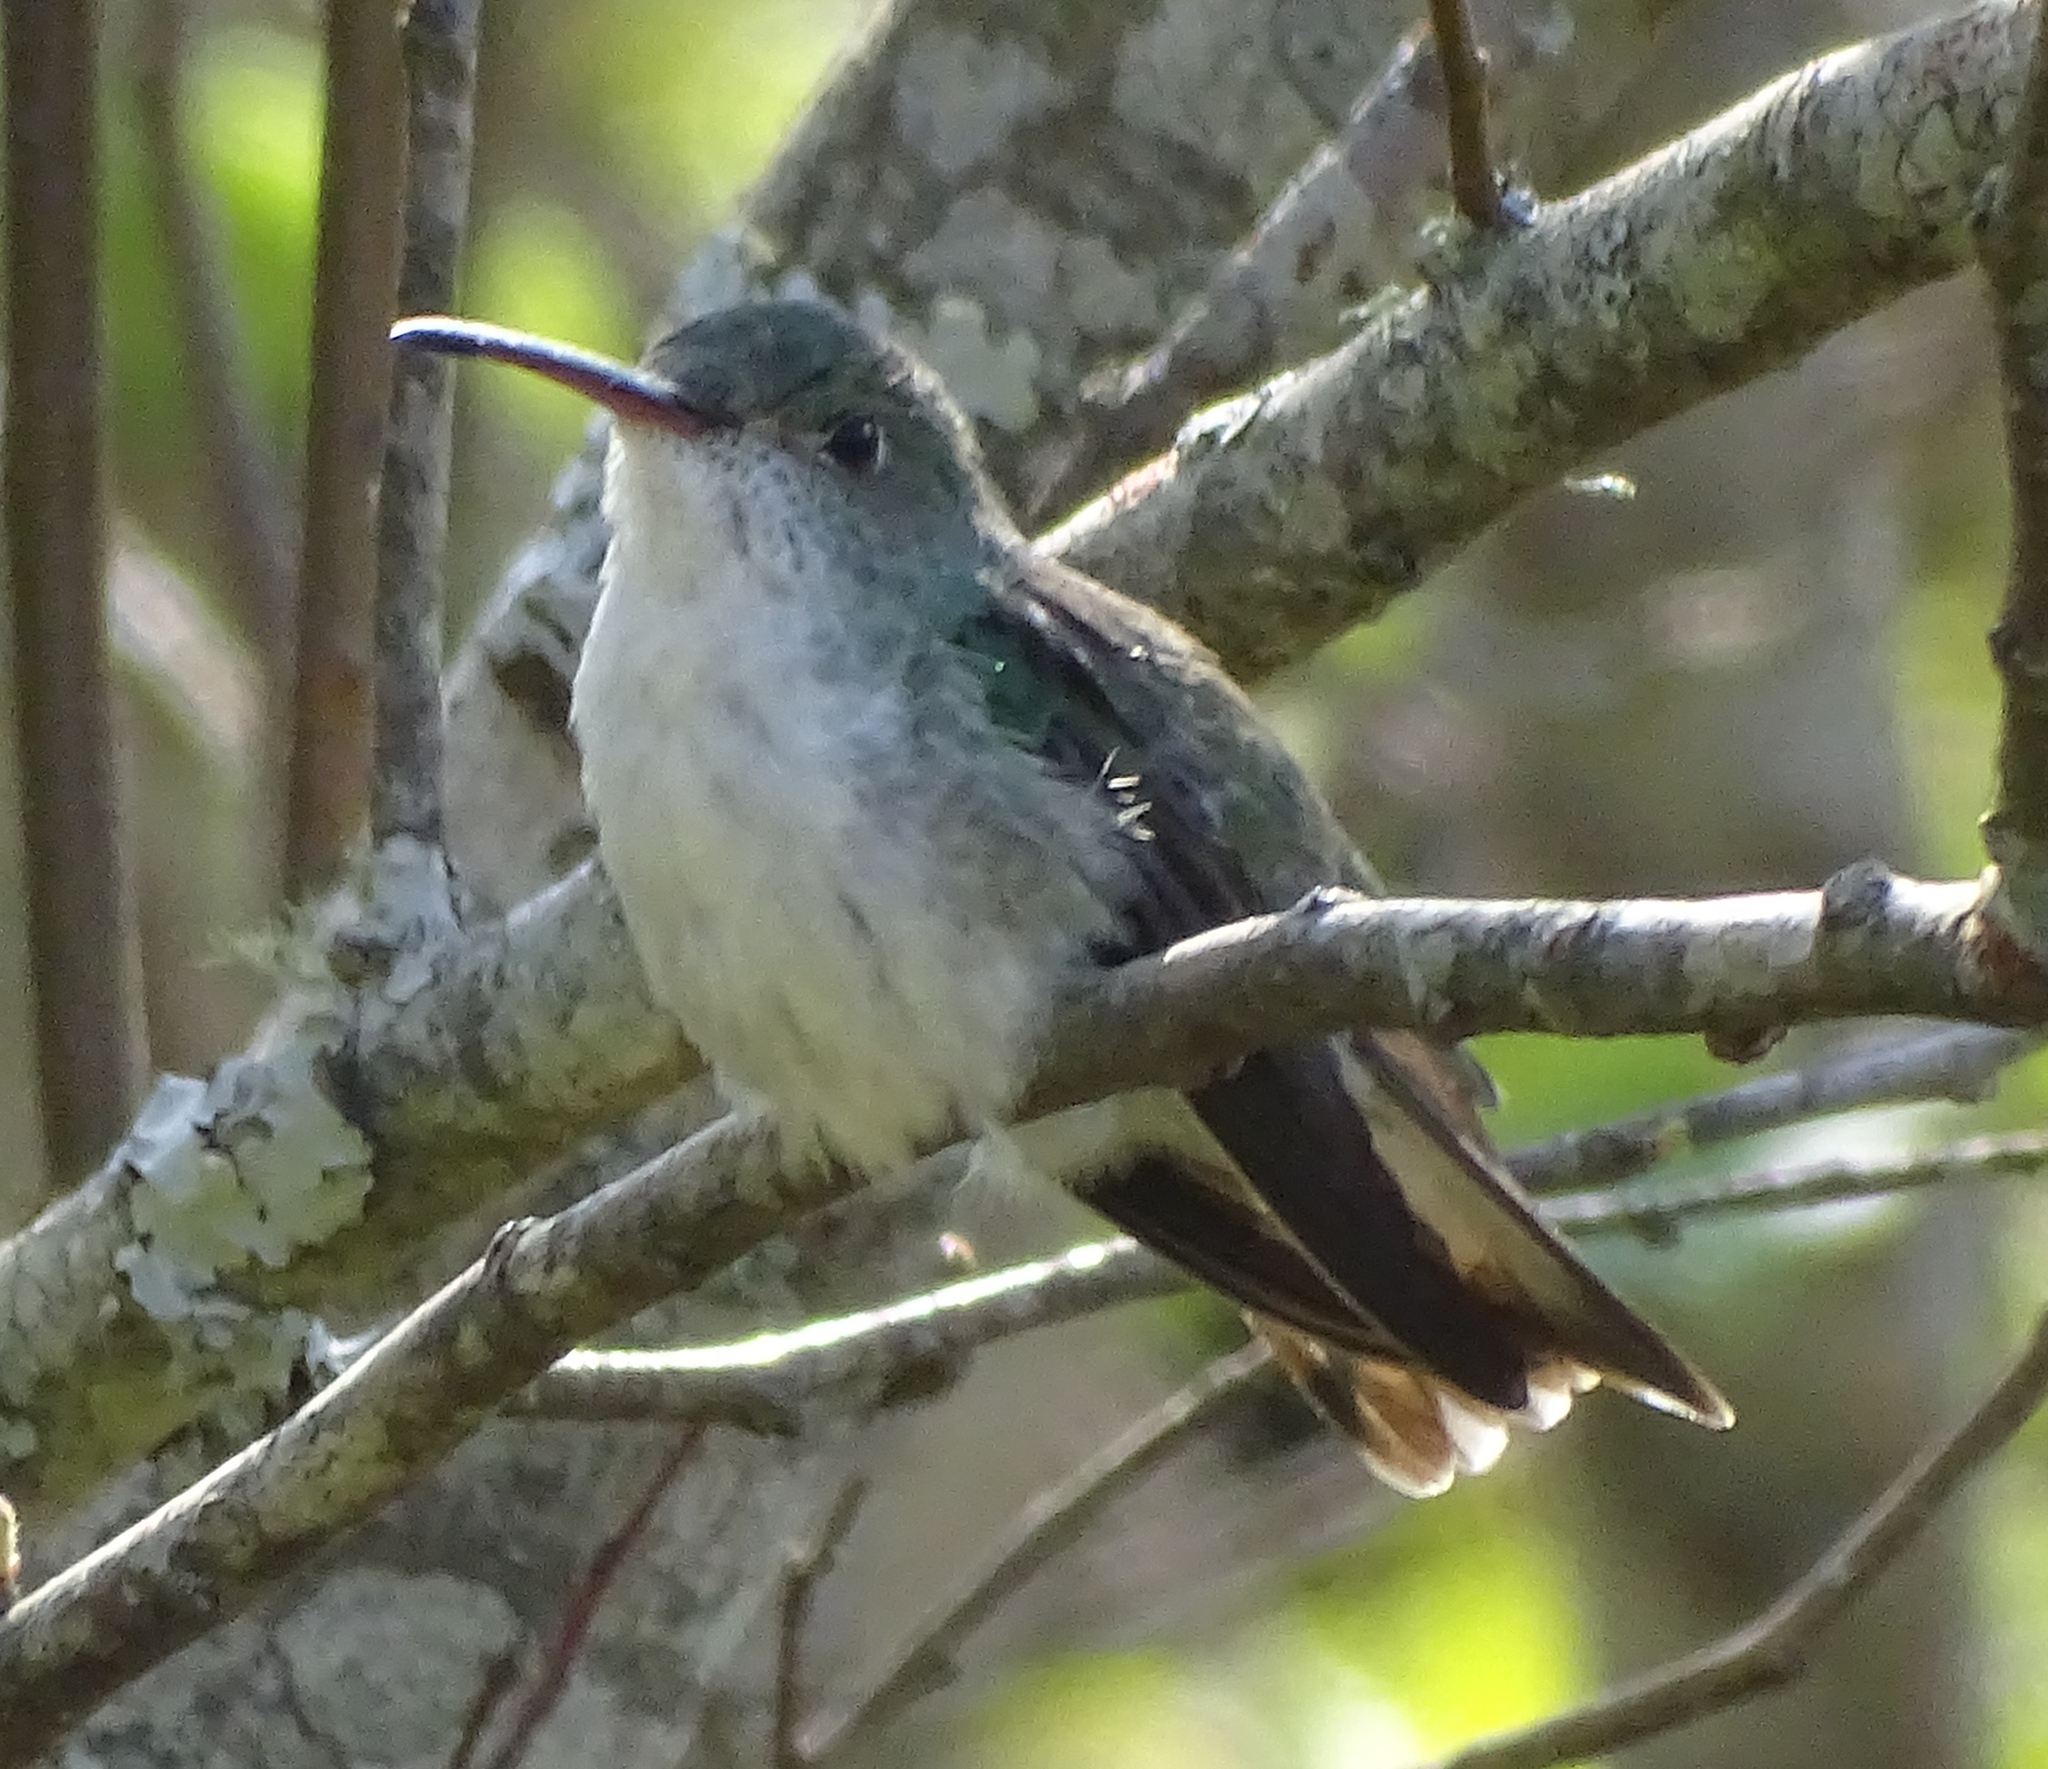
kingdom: Animalia
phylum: Chordata
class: Aves
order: Apodiformes
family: Trochilidae
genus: Elliotomyia
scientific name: Elliotomyia chionogaster
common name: White-bellied hummingbird
